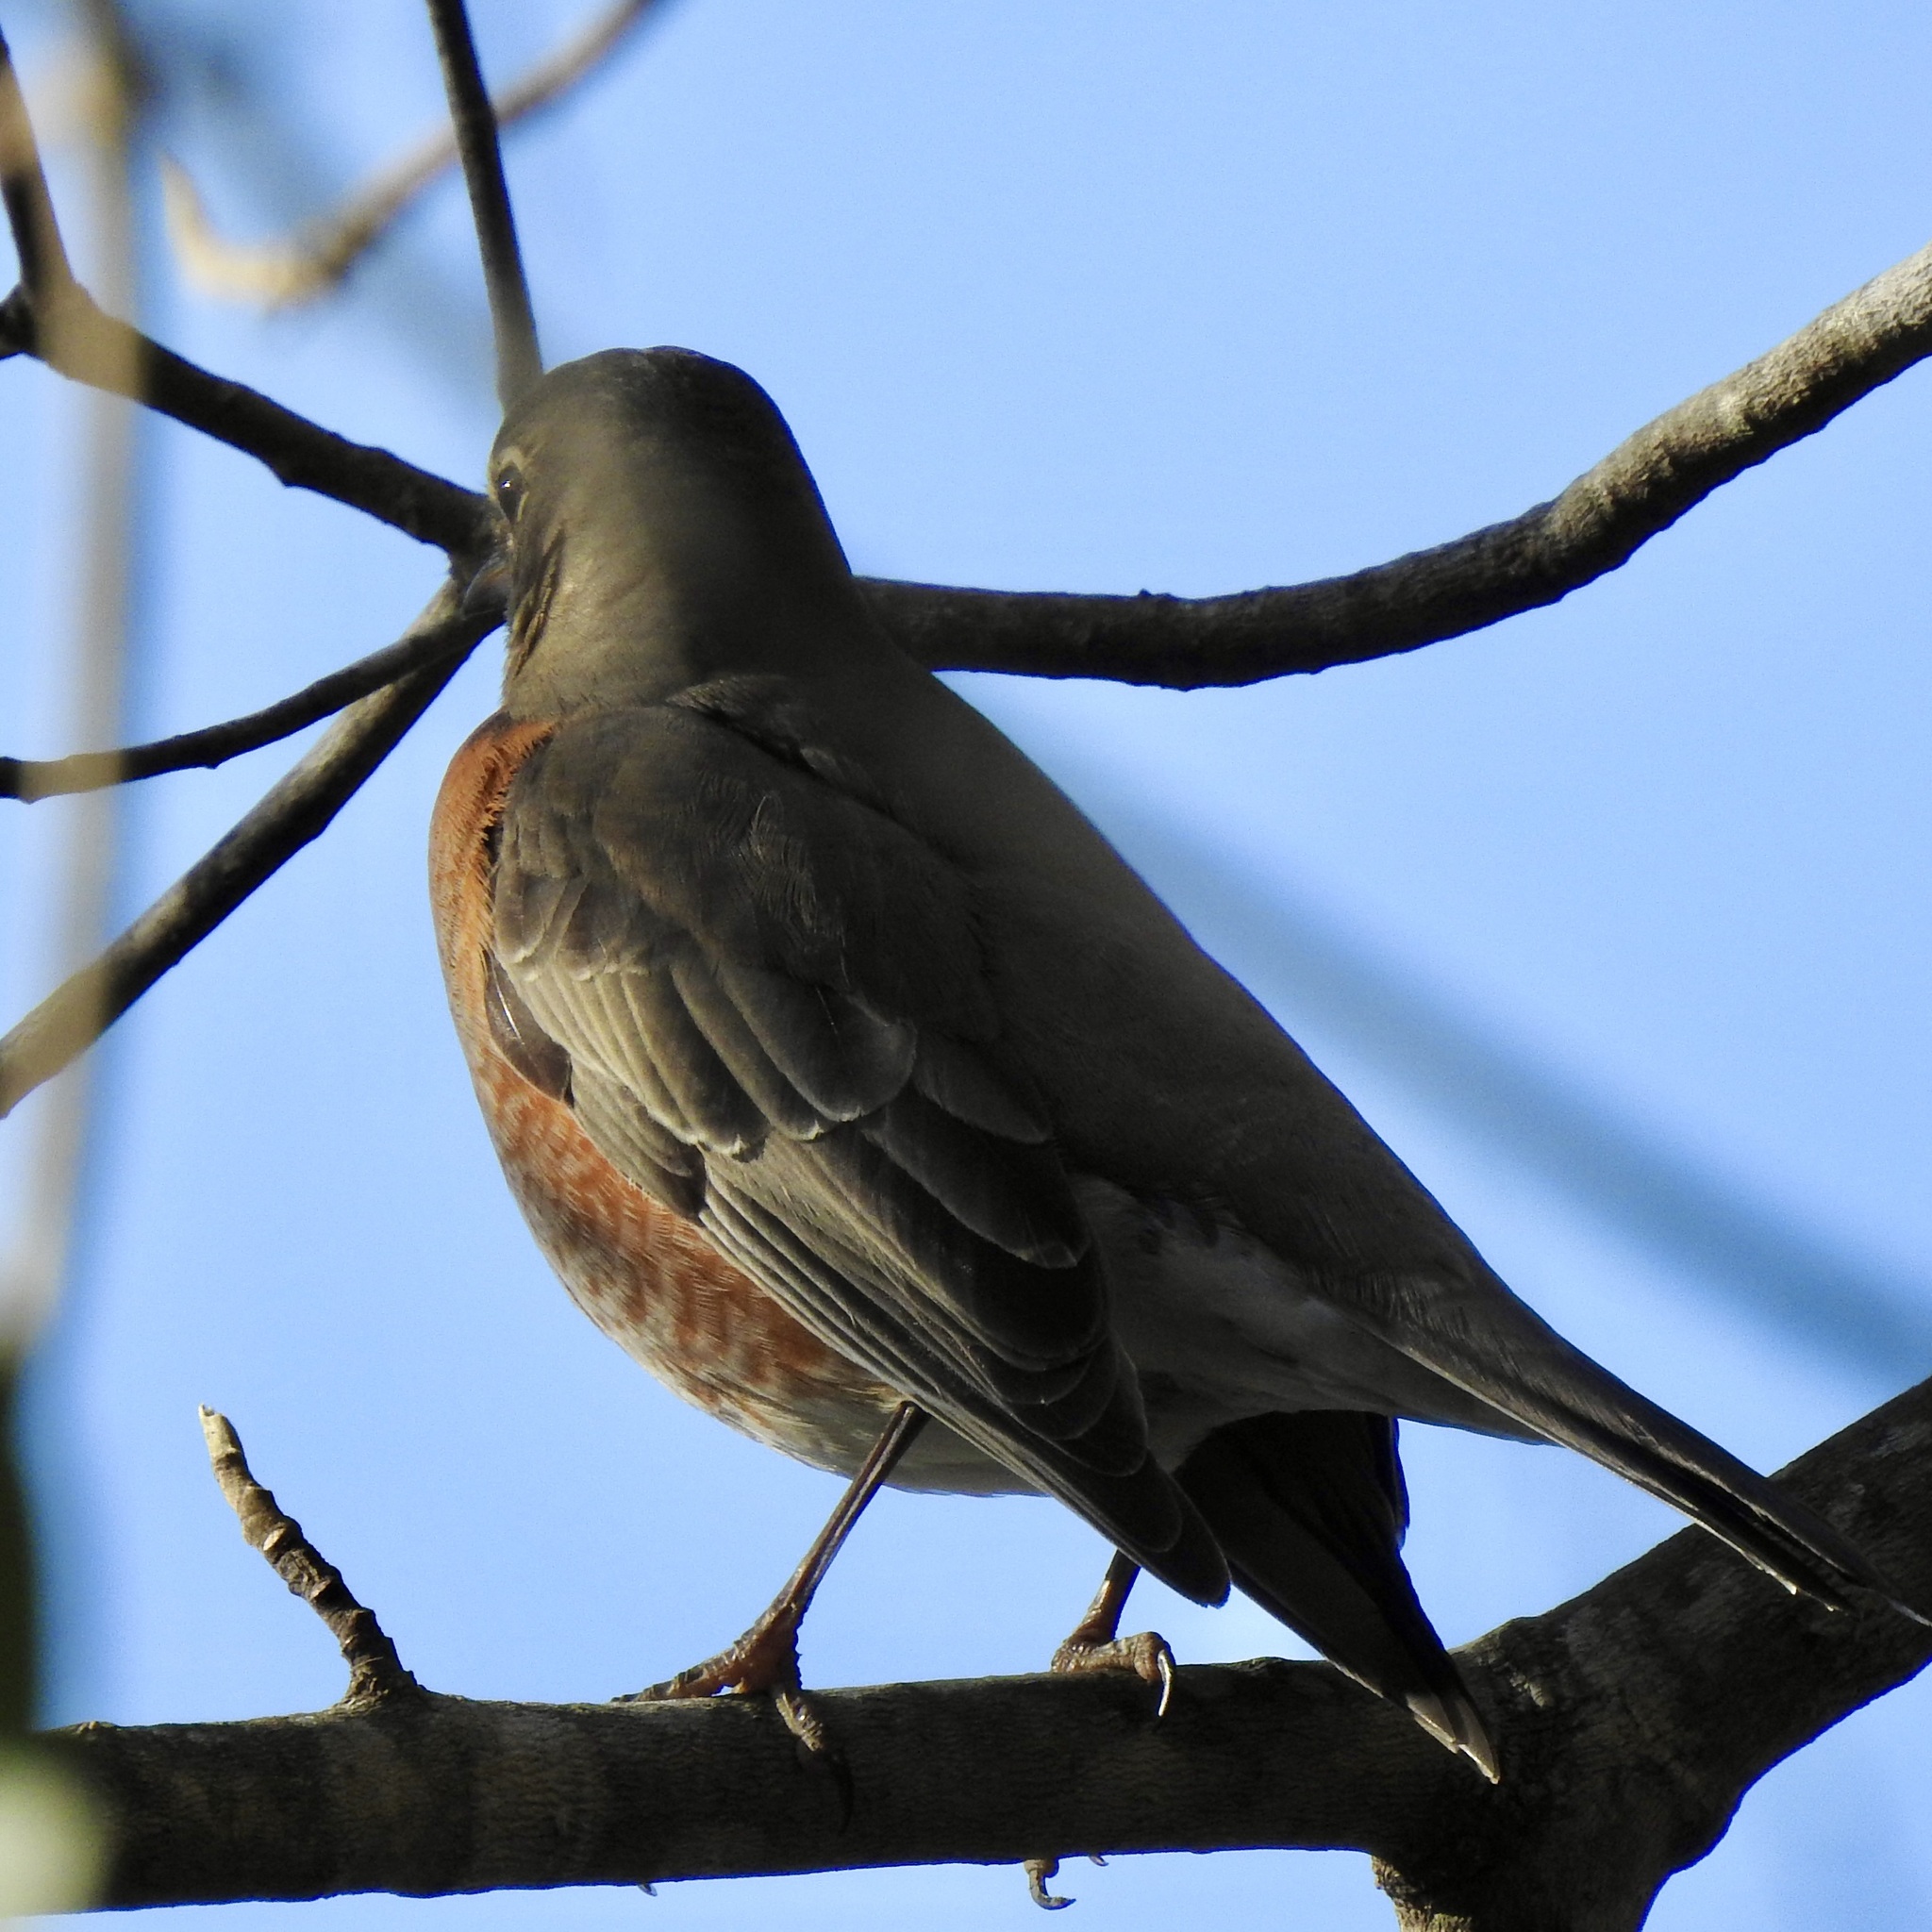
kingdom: Animalia
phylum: Chordata
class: Aves
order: Passeriformes
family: Turdidae
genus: Turdus
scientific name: Turdus migratorius
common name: American robin
